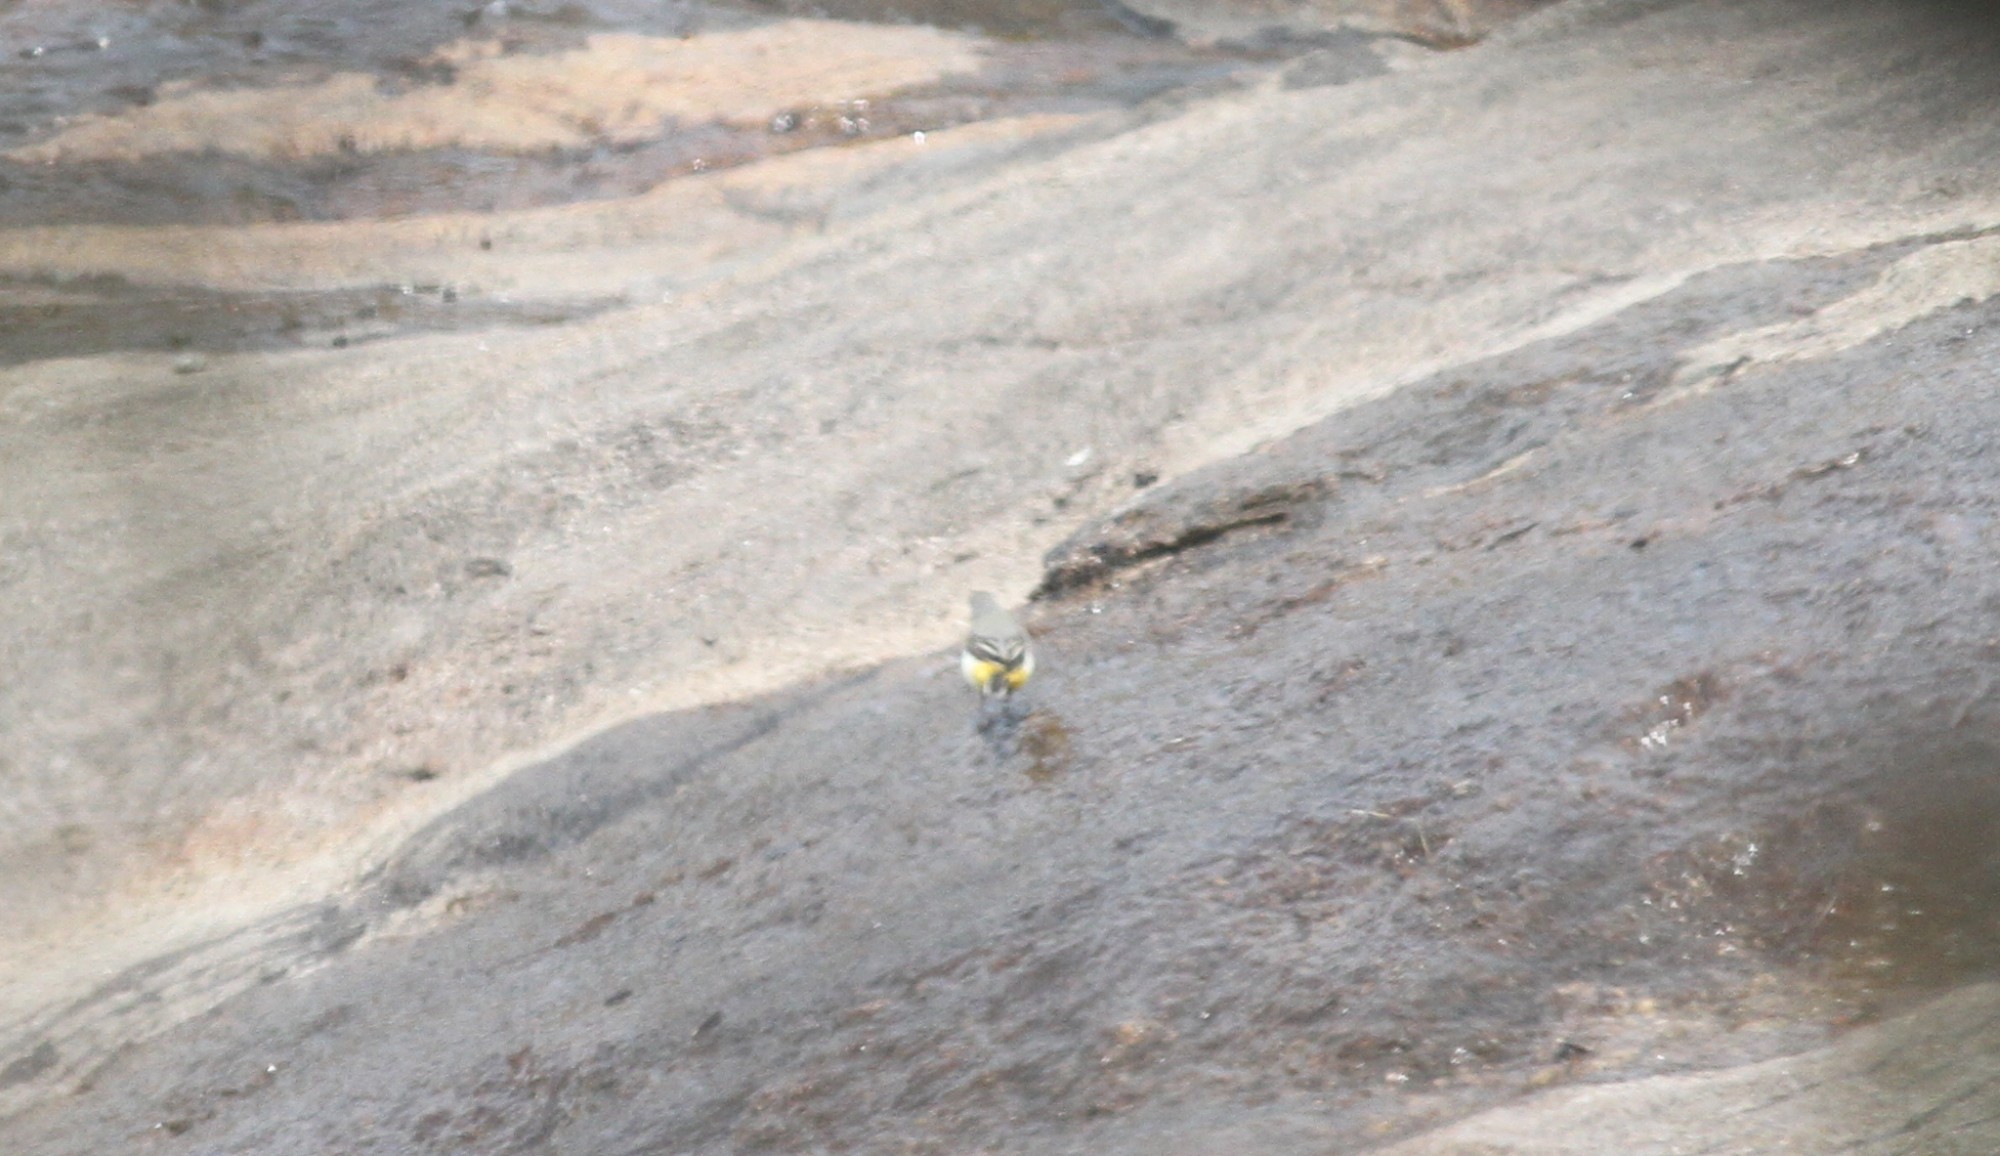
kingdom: Animalia
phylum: Chordata
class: Aves
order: Passeriformes
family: Motacillidae
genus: Motacilla
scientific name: Motacilla cinerea
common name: Grey wagtail
